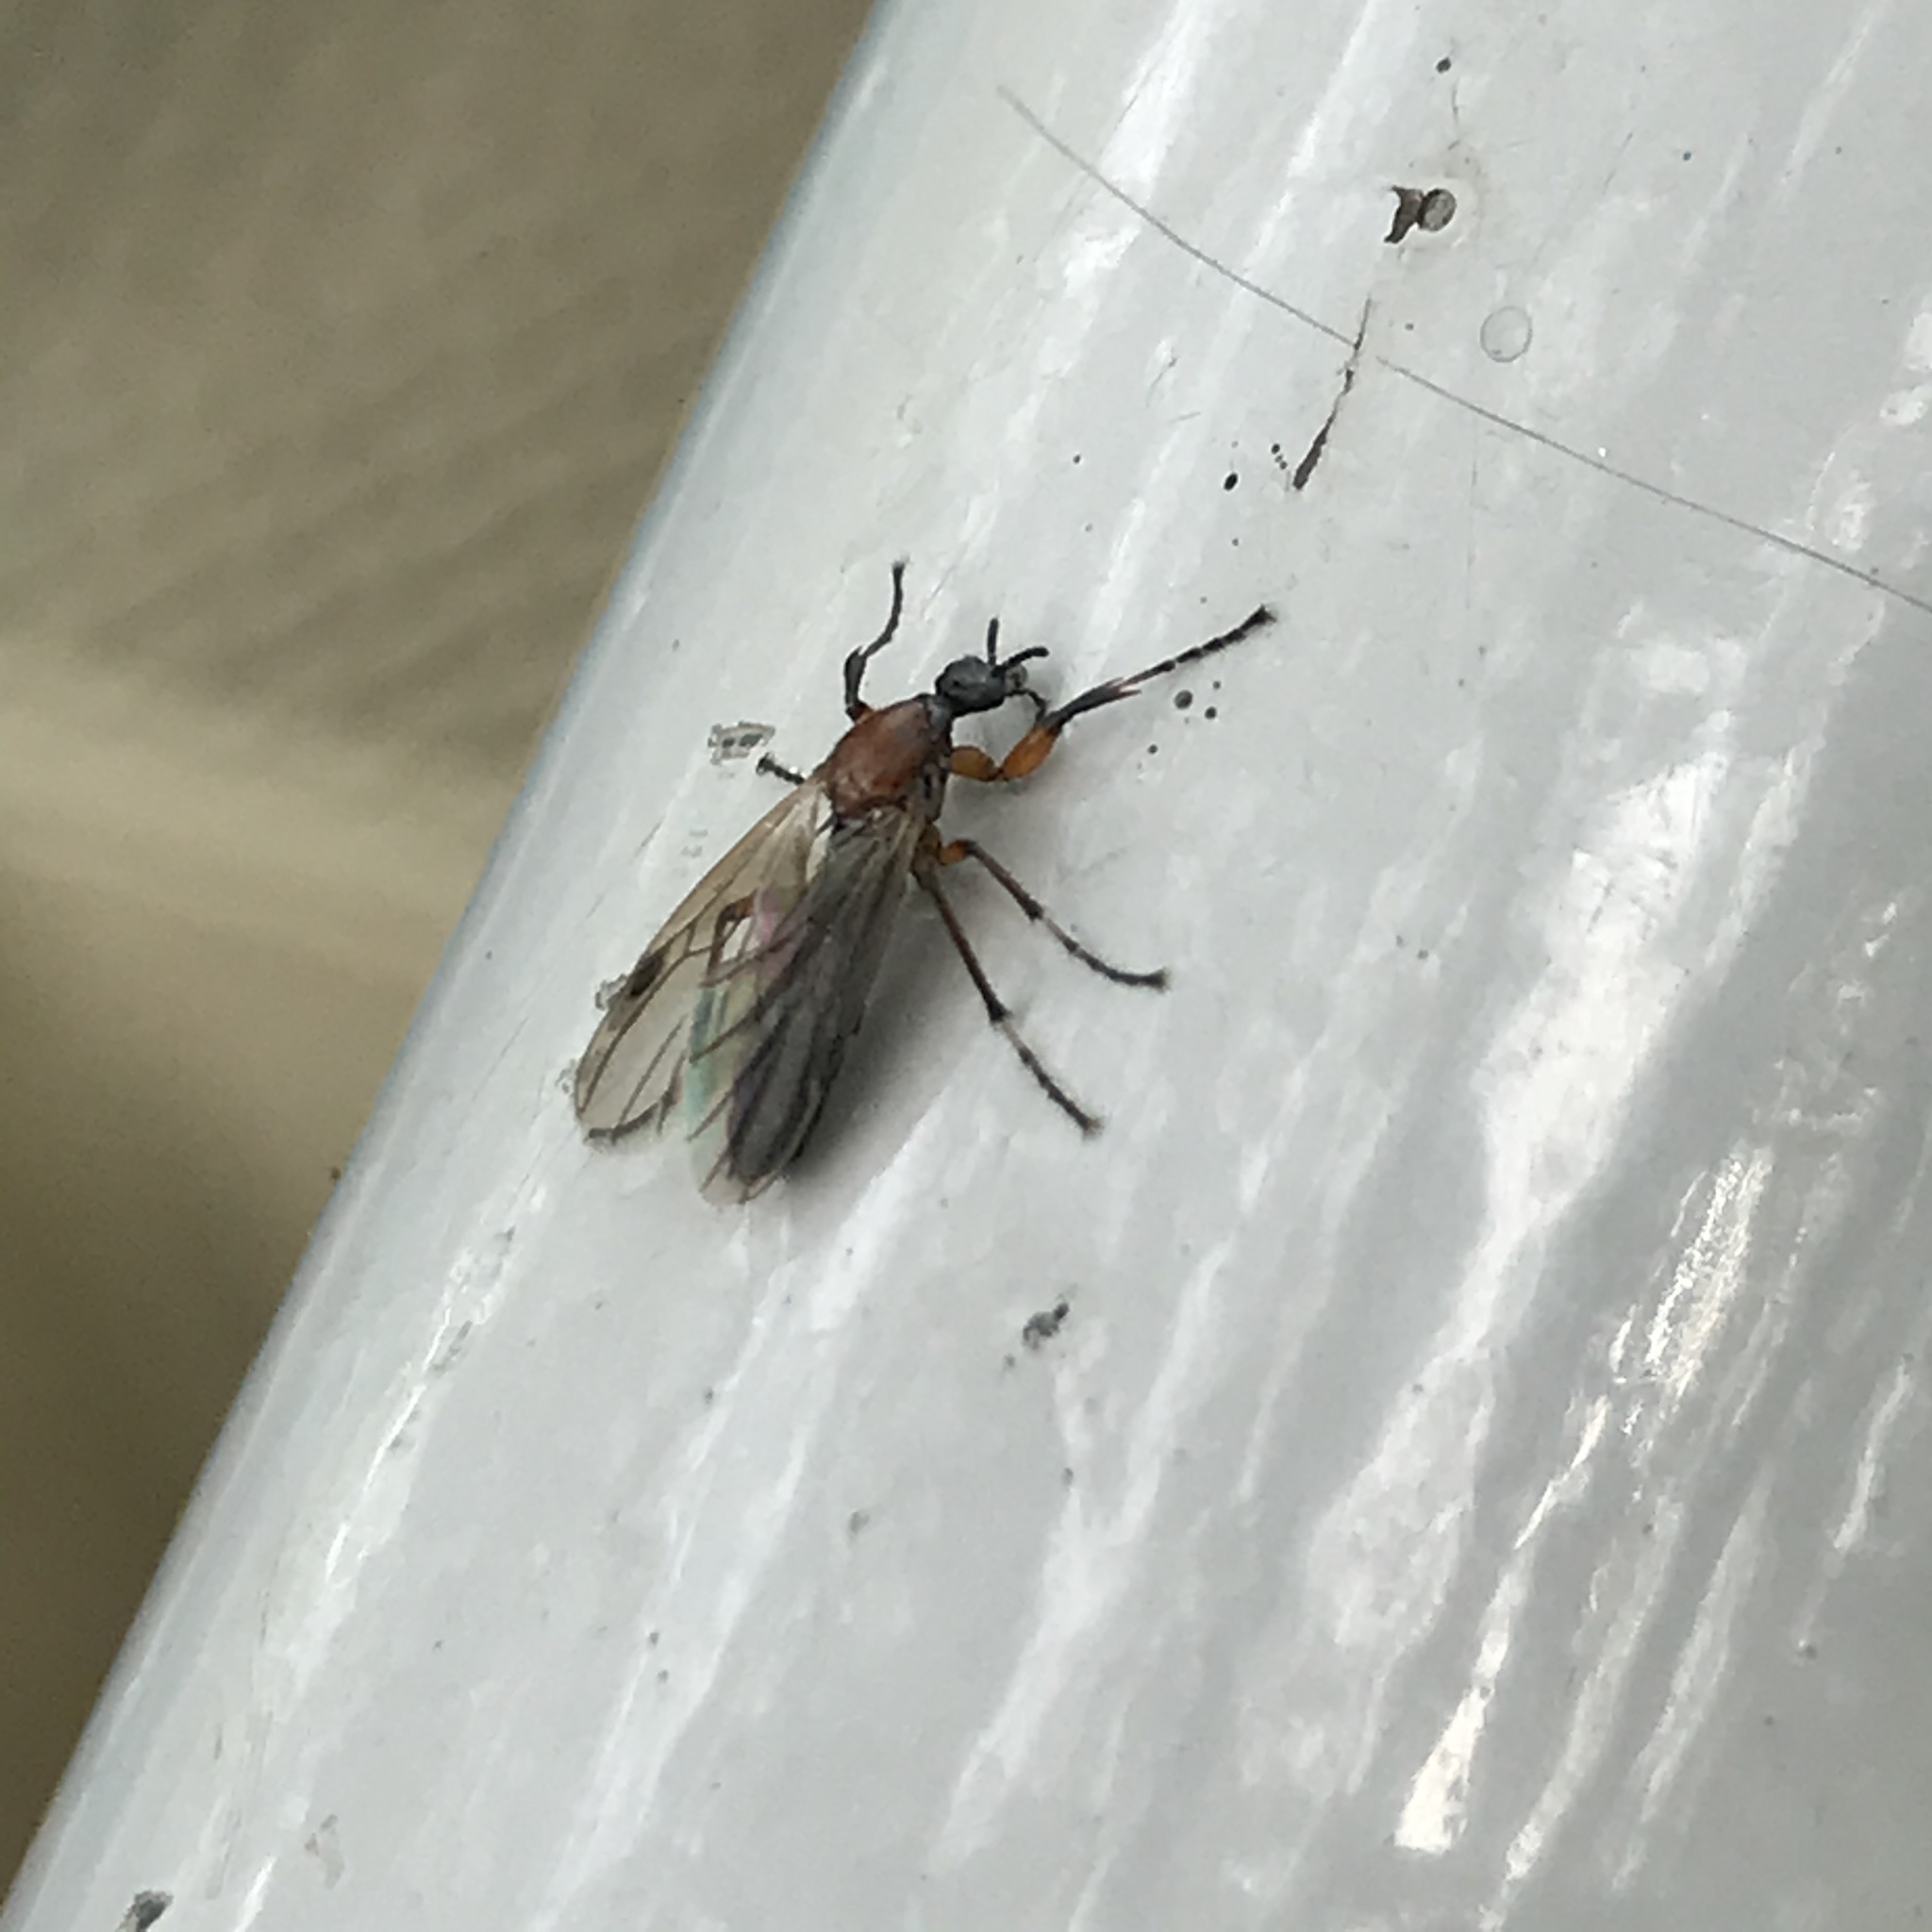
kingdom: Animalia
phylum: Arthropoda
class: Insecta
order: Diptera
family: Bibionidae
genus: Bibio
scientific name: Bibio articulatus
